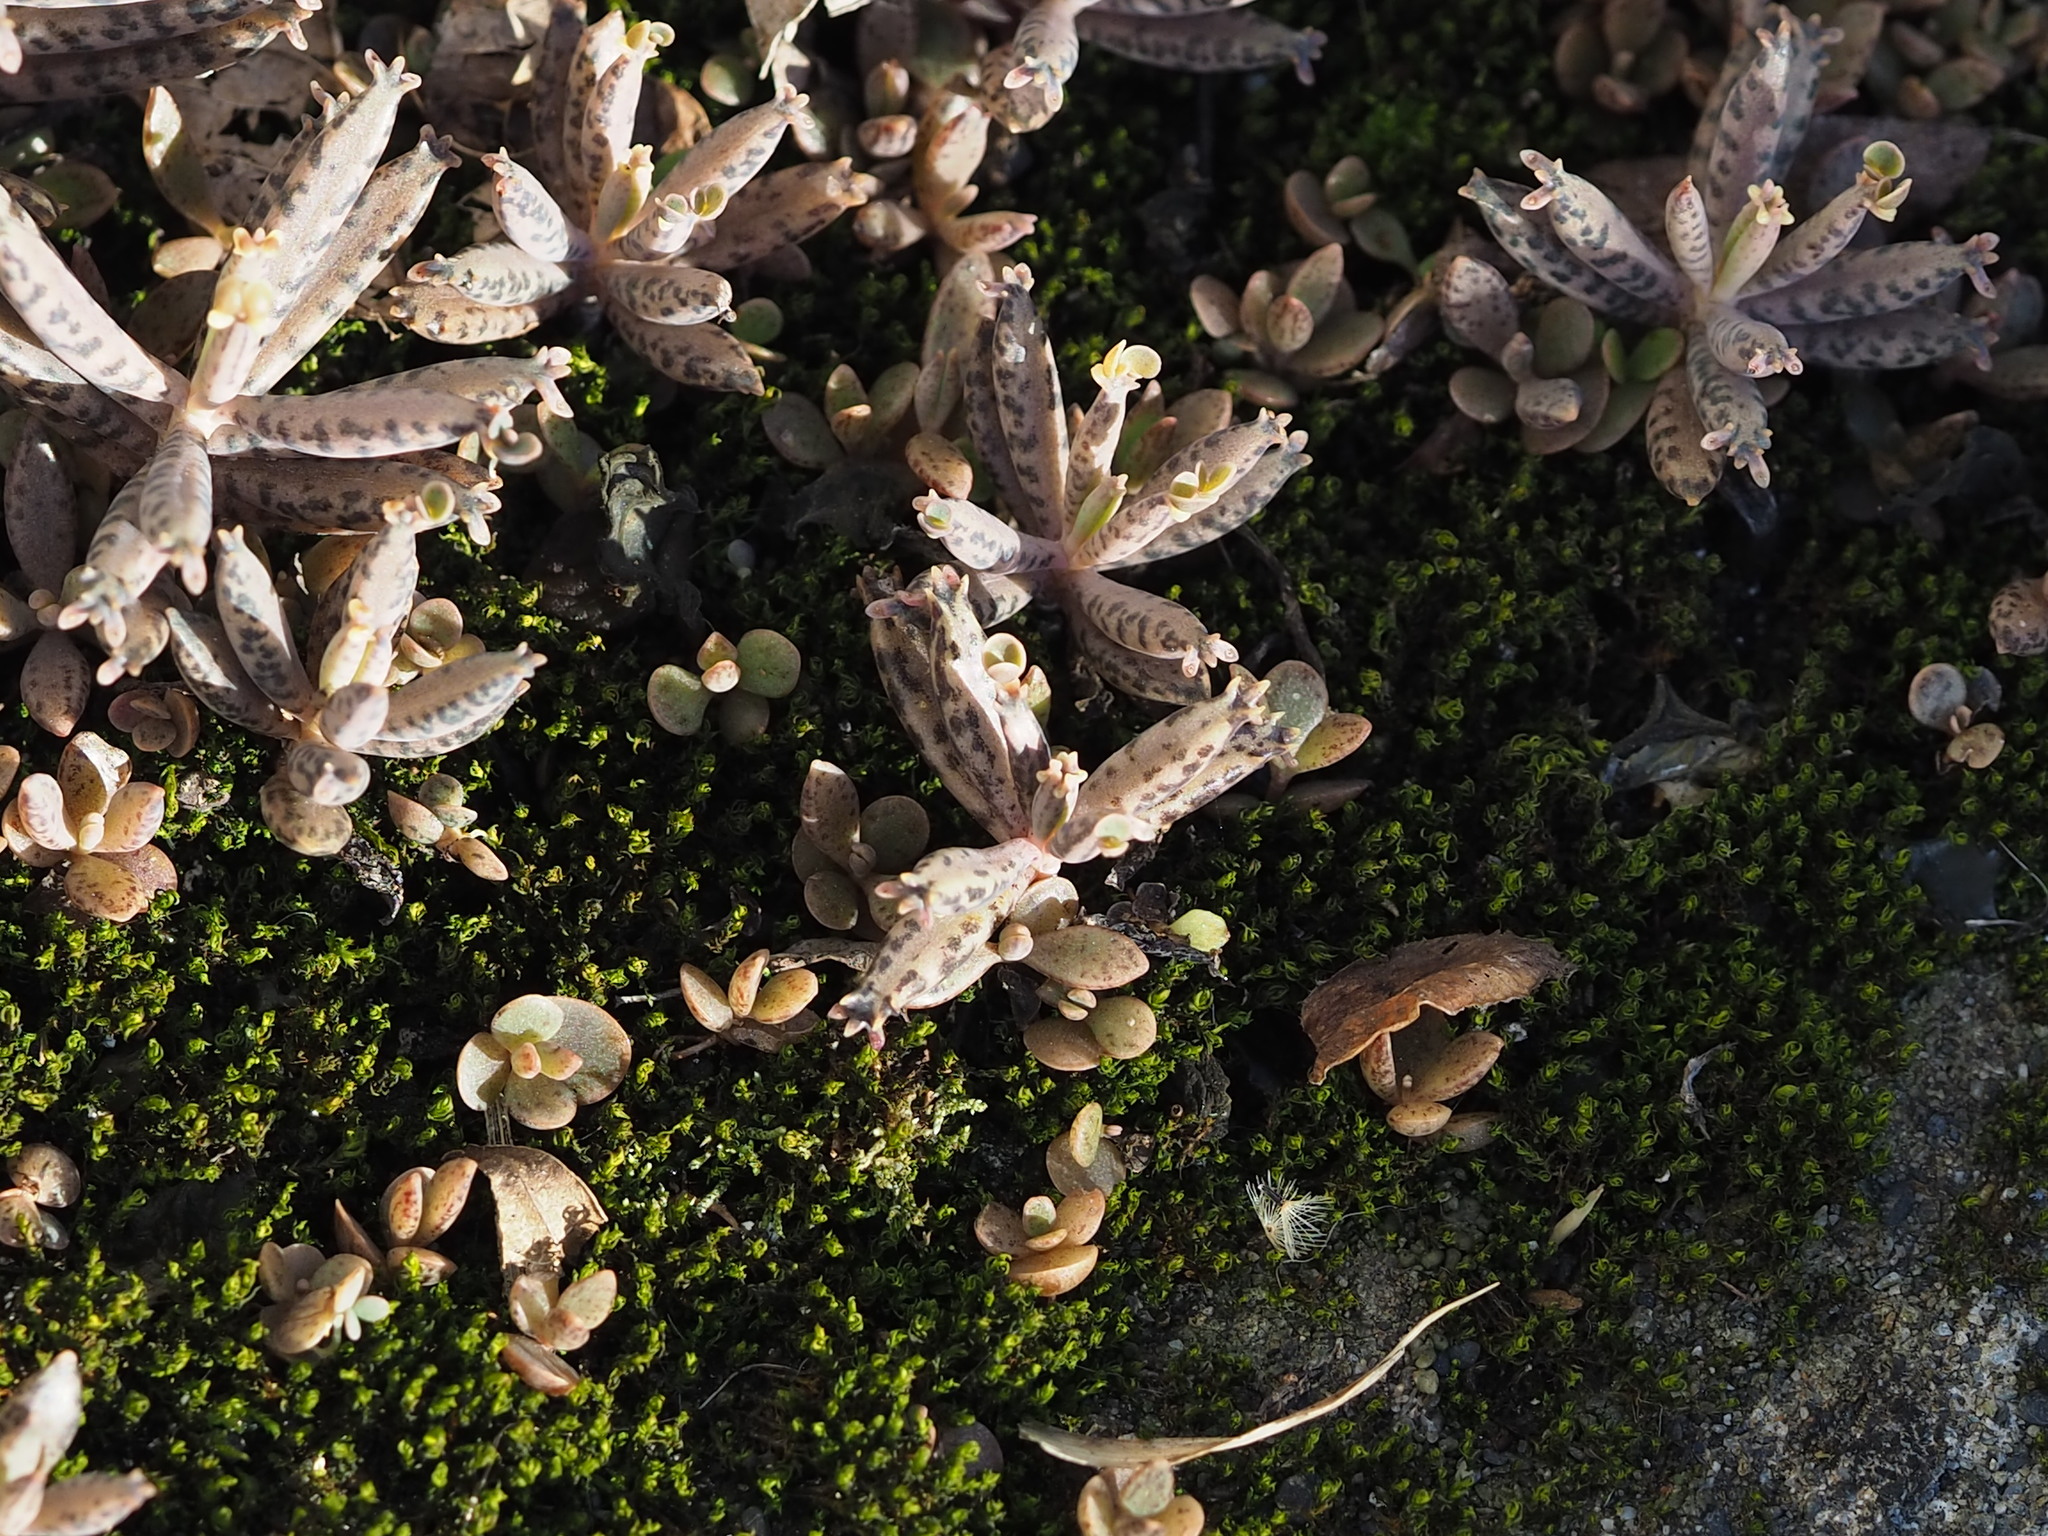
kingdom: Plantae
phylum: Tracheophyta
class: Magnoliopsida
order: Saxifragales
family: Crassulaceae
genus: Kalanchoe
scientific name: Kalanchoe delagoensis
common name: Chandelier plant
